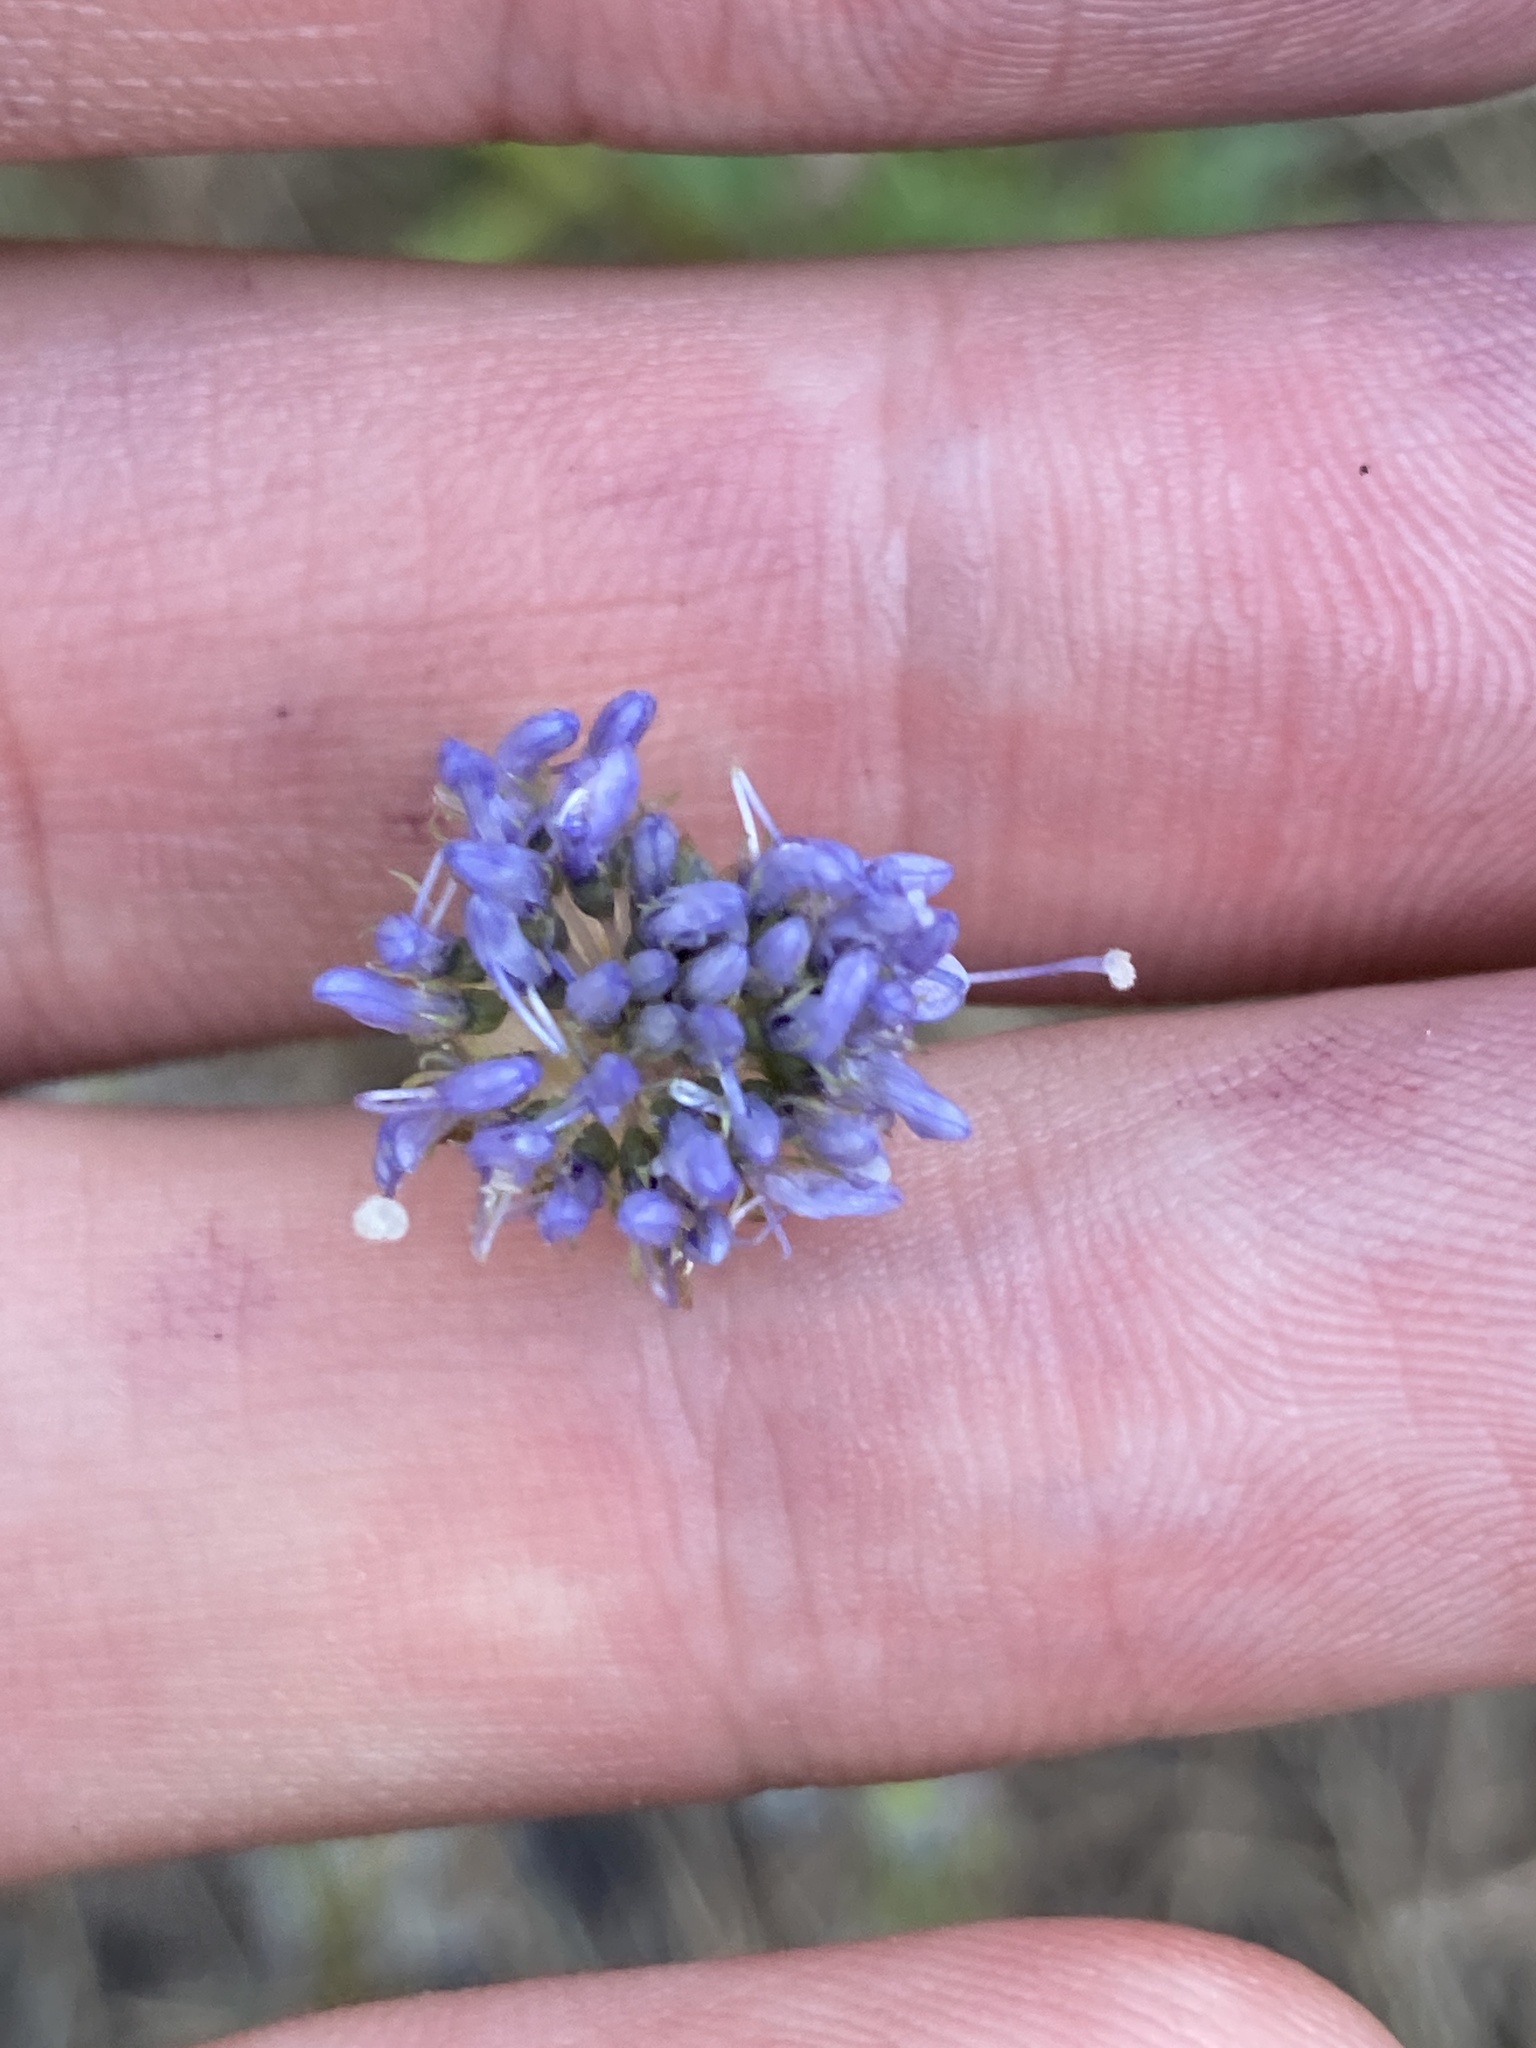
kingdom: Plantae
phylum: Tracheophyta
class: Magnoliopsida
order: Asterales
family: Campanulaceae
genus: Jasione
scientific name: Jasione montana
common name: Sheep's-bit
